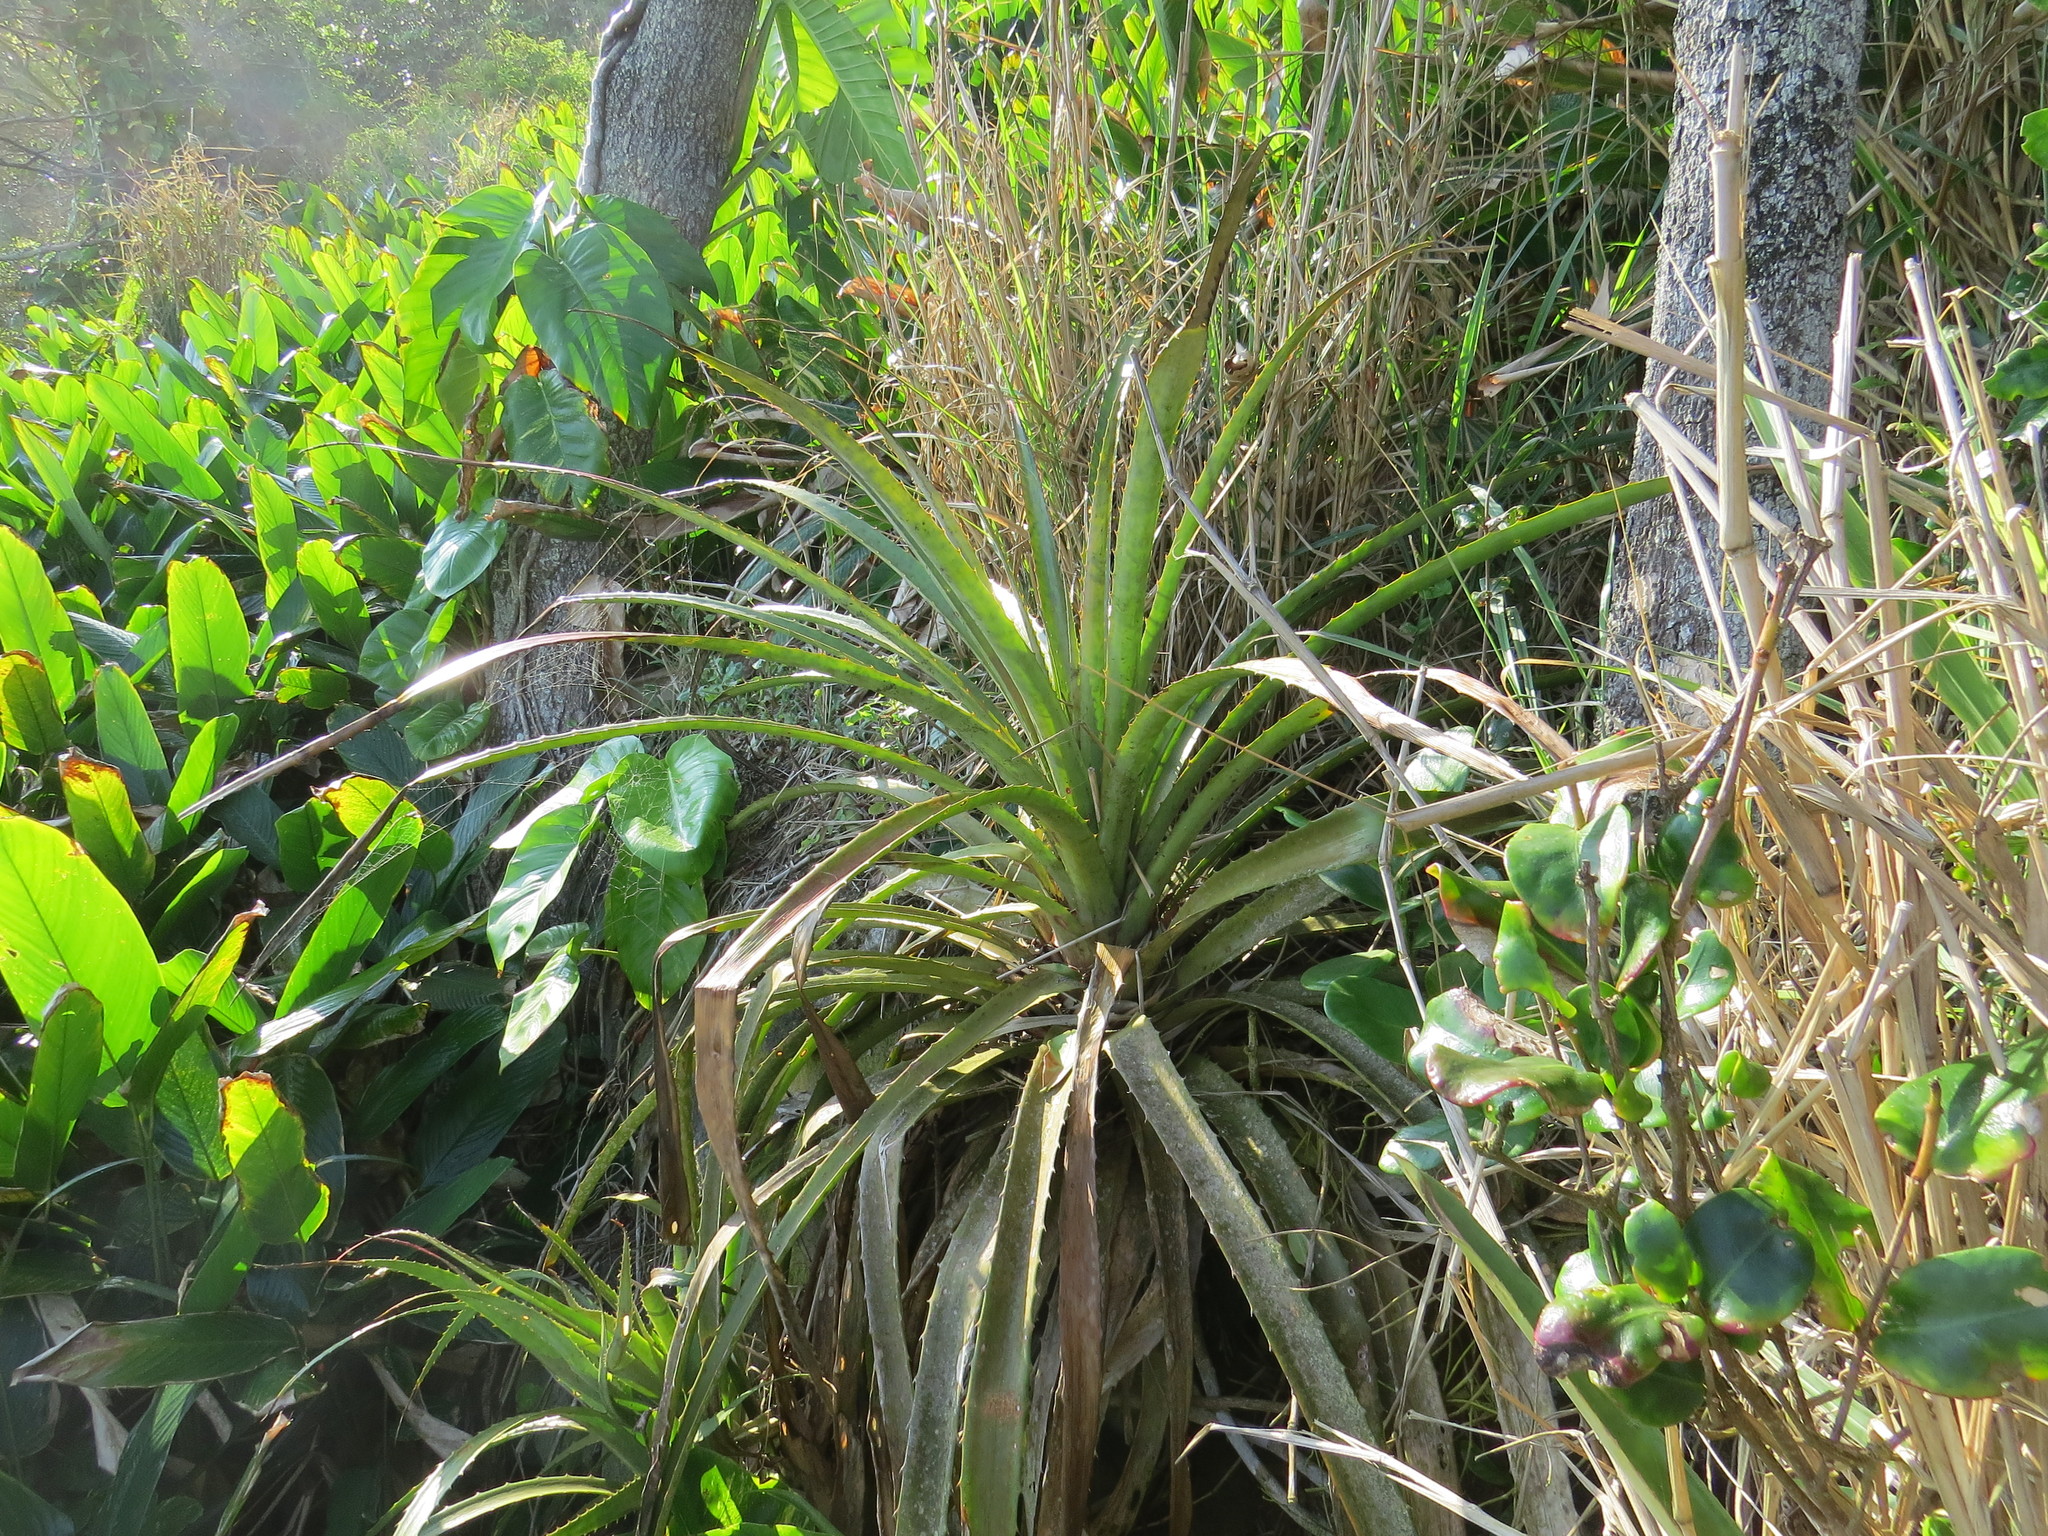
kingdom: Plantae
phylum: Tracheophyta
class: Liliopsida
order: Poales
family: Bromeliaceae
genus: Bromelia
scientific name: Bromelia antiacantha
